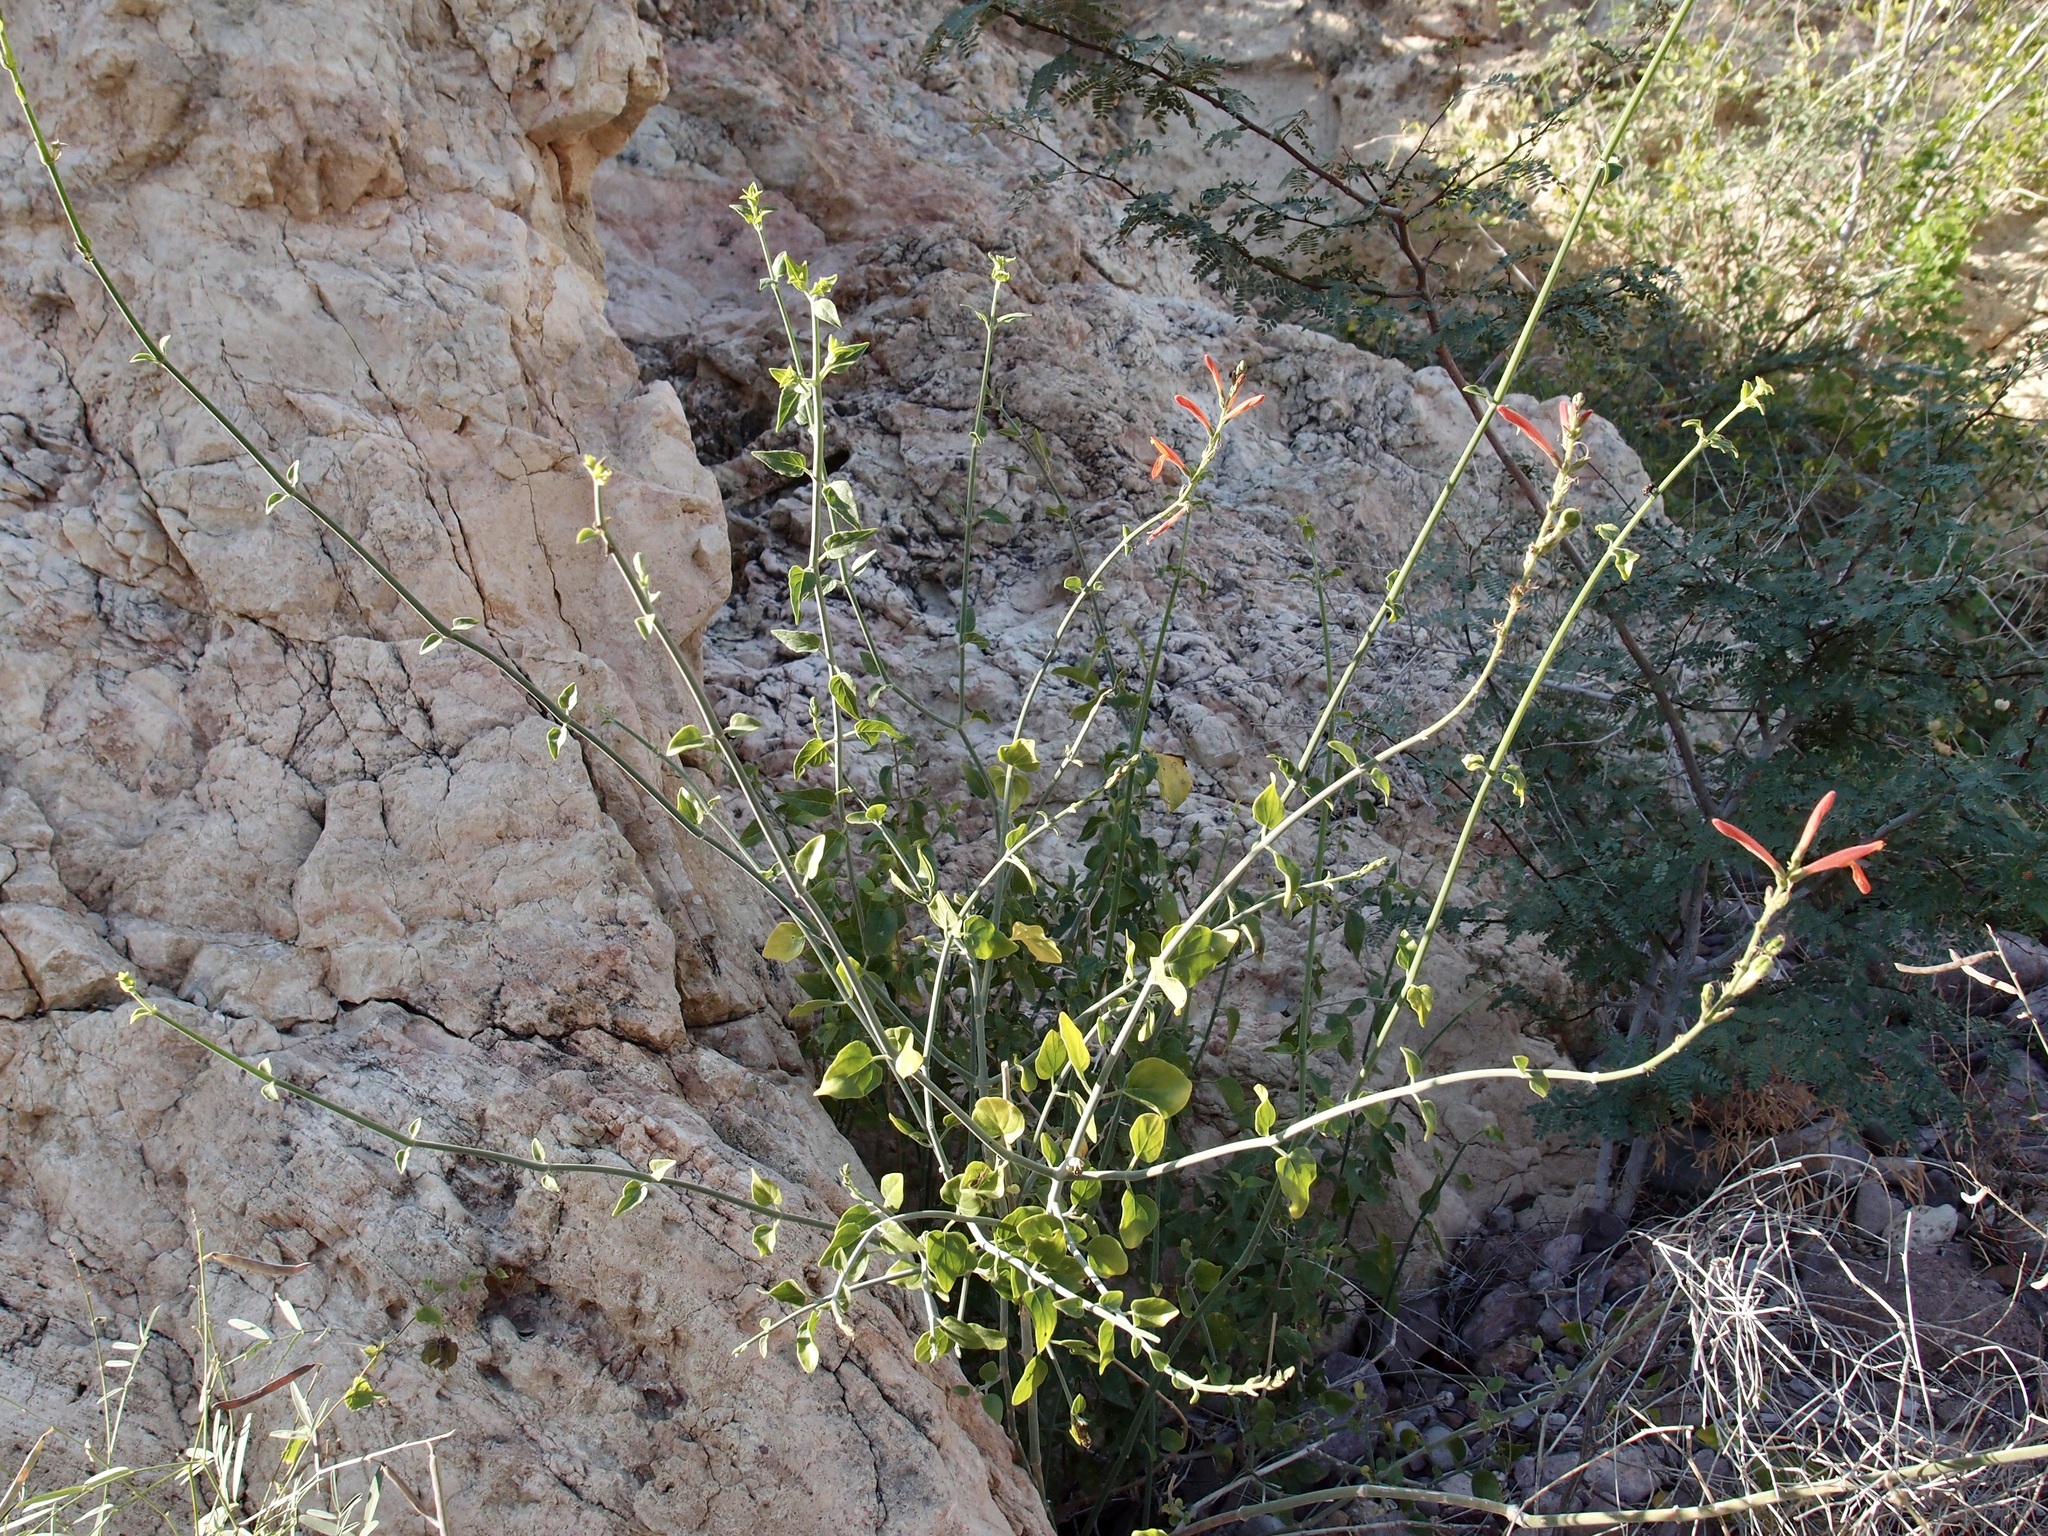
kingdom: Plantae
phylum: Tracheophyta
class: Magnoliopsida
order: Lamiales
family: Acanthaceae
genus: Justicia
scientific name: Justicia californica
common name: Chuparosa-honeysuckle
